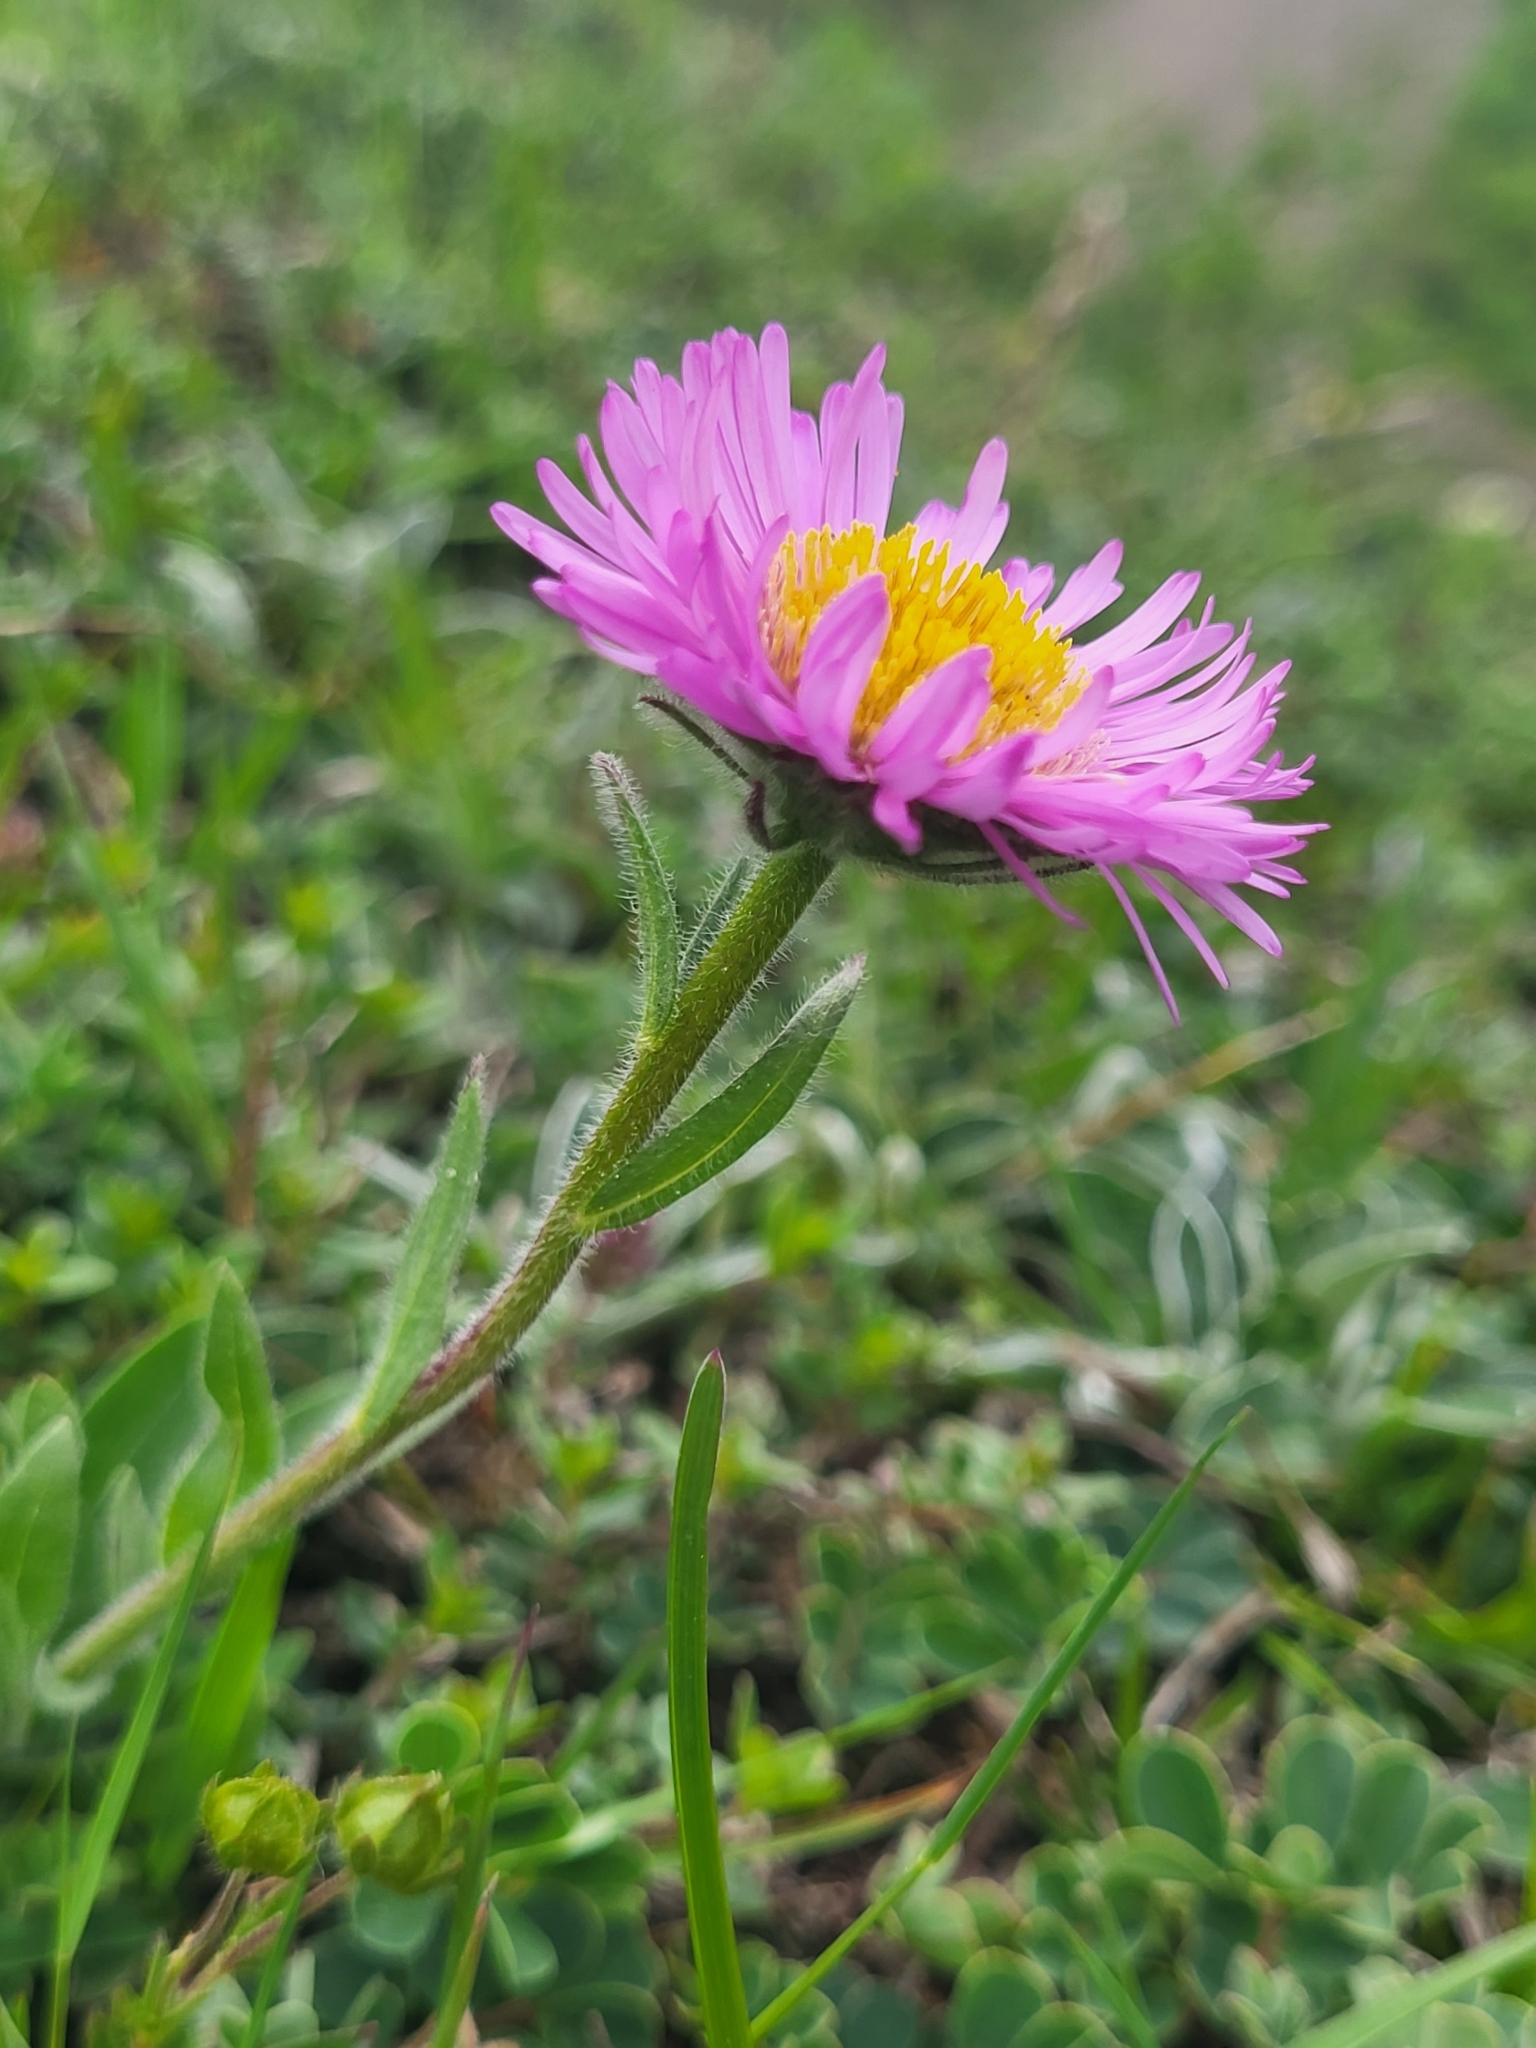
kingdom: Plantae
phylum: Tracheophyta
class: Magnoliopsida
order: Asterales
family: Asteraceae
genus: Erigeron
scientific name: Erigeron caucasicus
